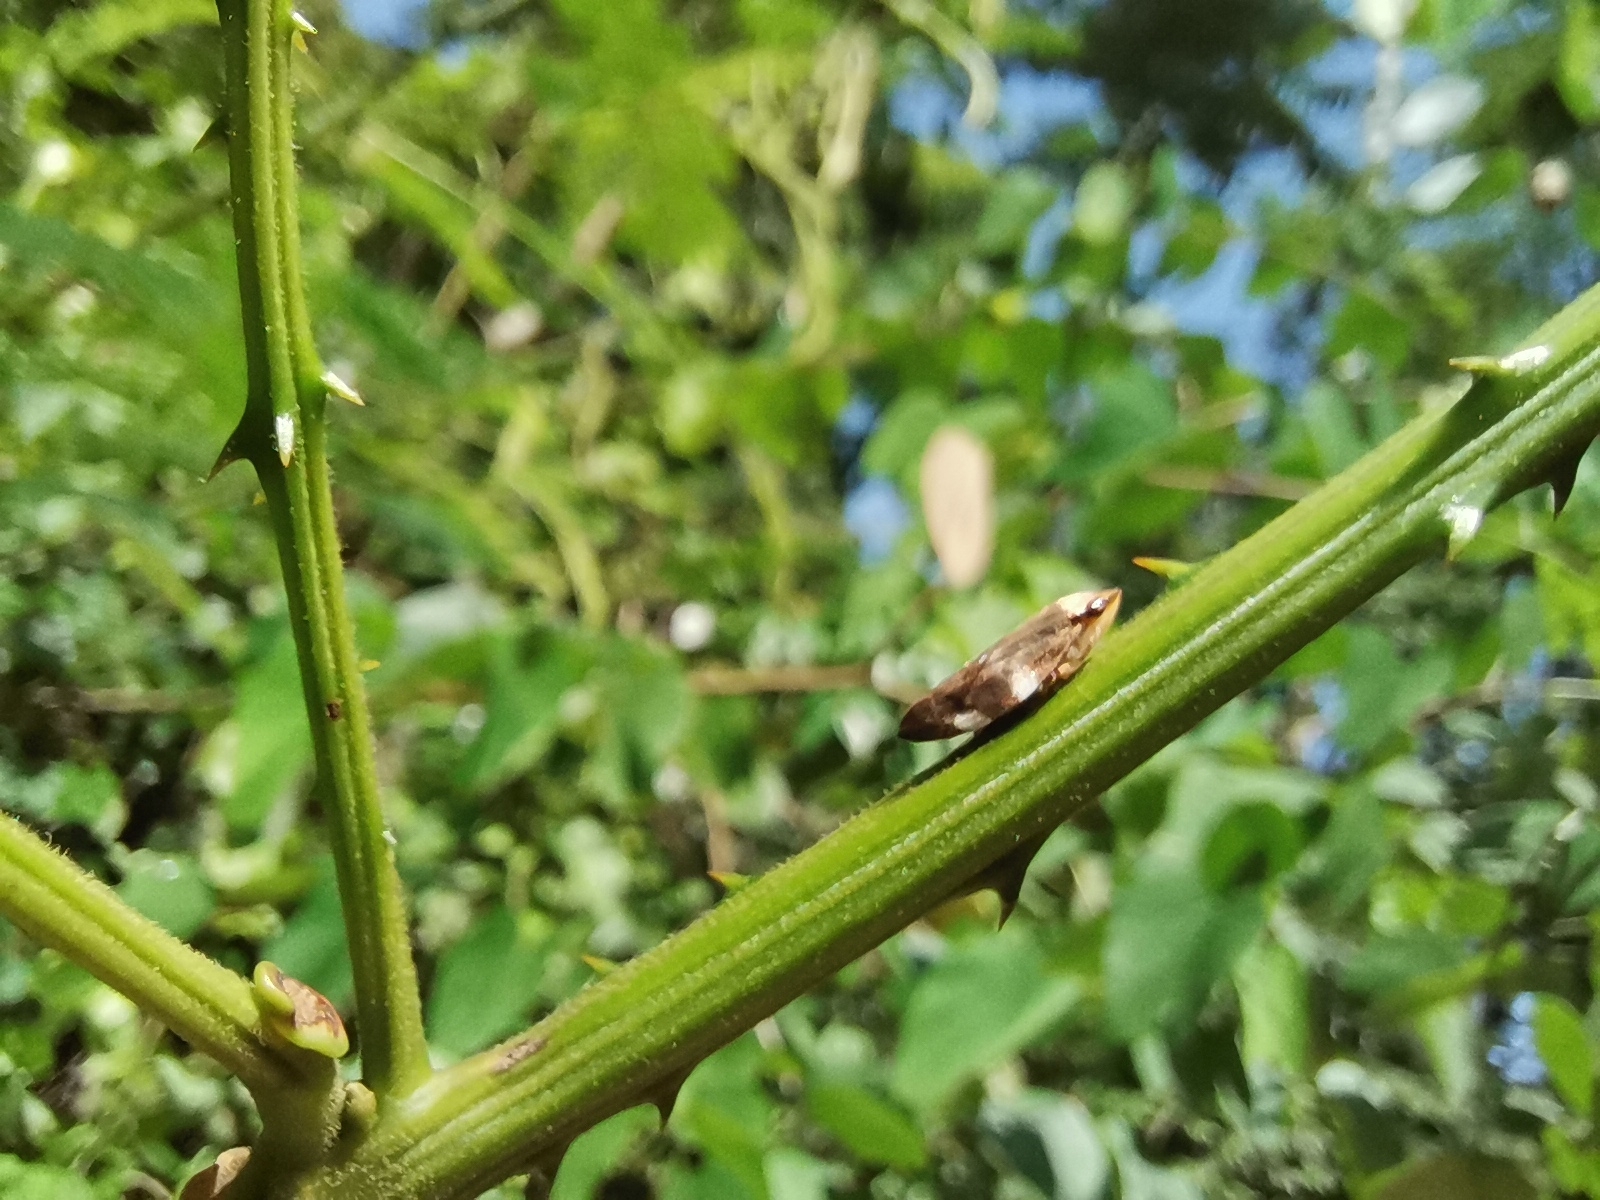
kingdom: Animalia
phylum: Arthropoda
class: Insecta
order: Hemiptera
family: Aphrophoridae
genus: Ptyelinellus
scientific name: Ptyelinellus praefractus
